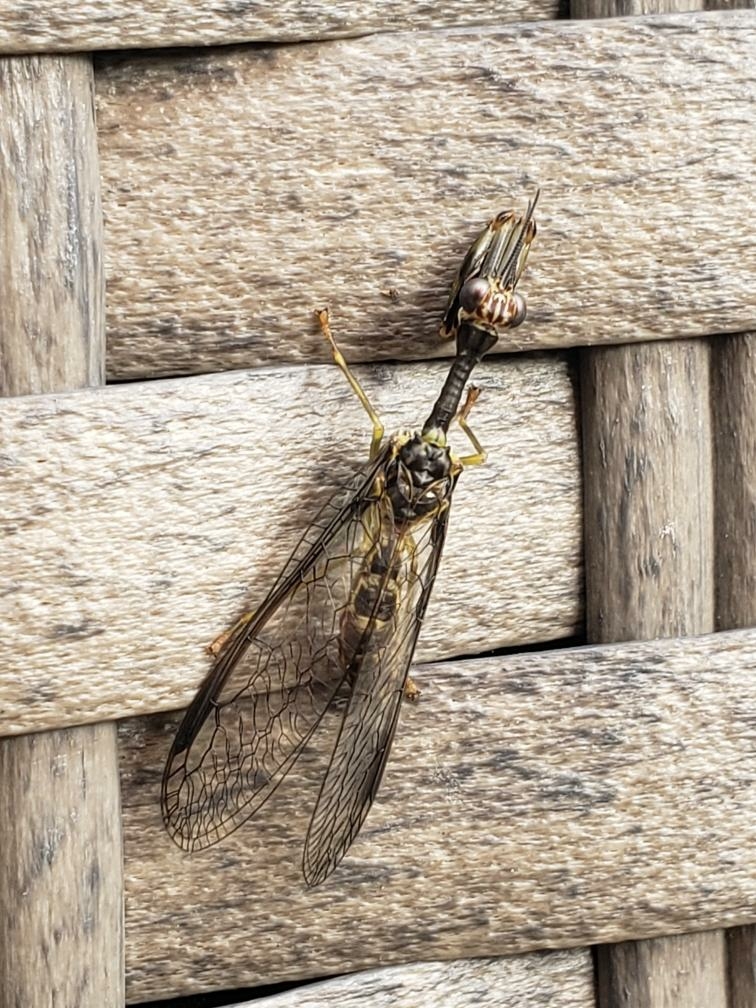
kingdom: Animalia
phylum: Arthropoda
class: Insecta
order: Neuroptera
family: Mantispidae
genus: Dicromantispa
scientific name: Dicromantispa sayi
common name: Say's mantidfly
